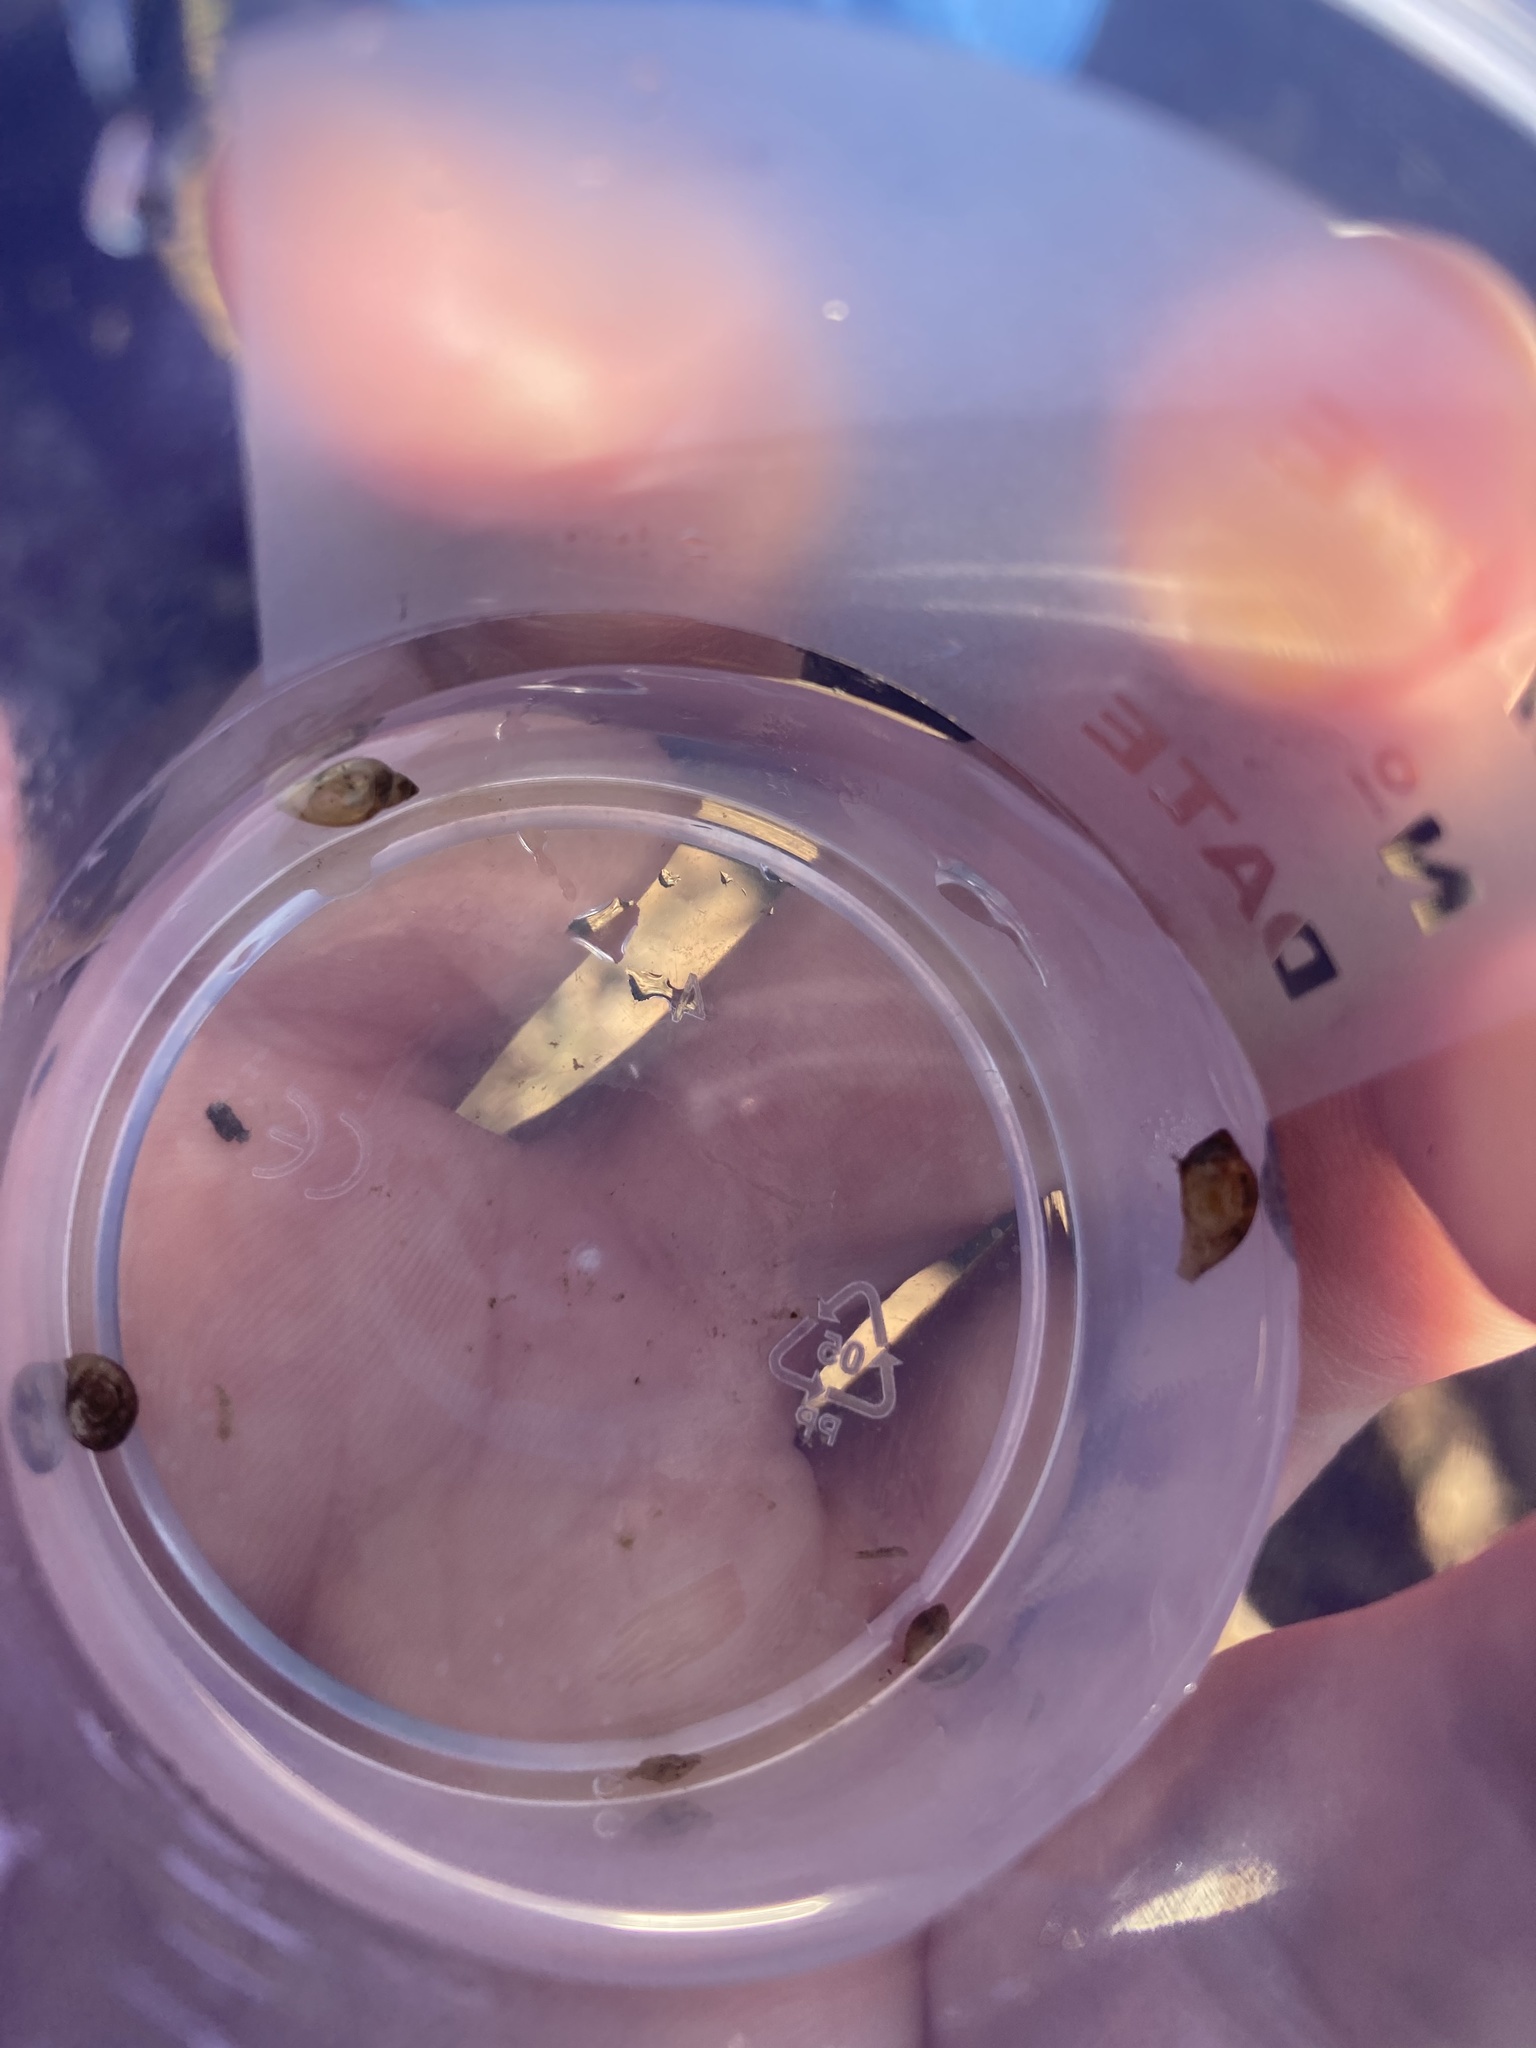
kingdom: Animalia
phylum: Mollusca
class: Gastropoda
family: Physidae
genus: Physella
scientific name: Physella acuta
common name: European physa
